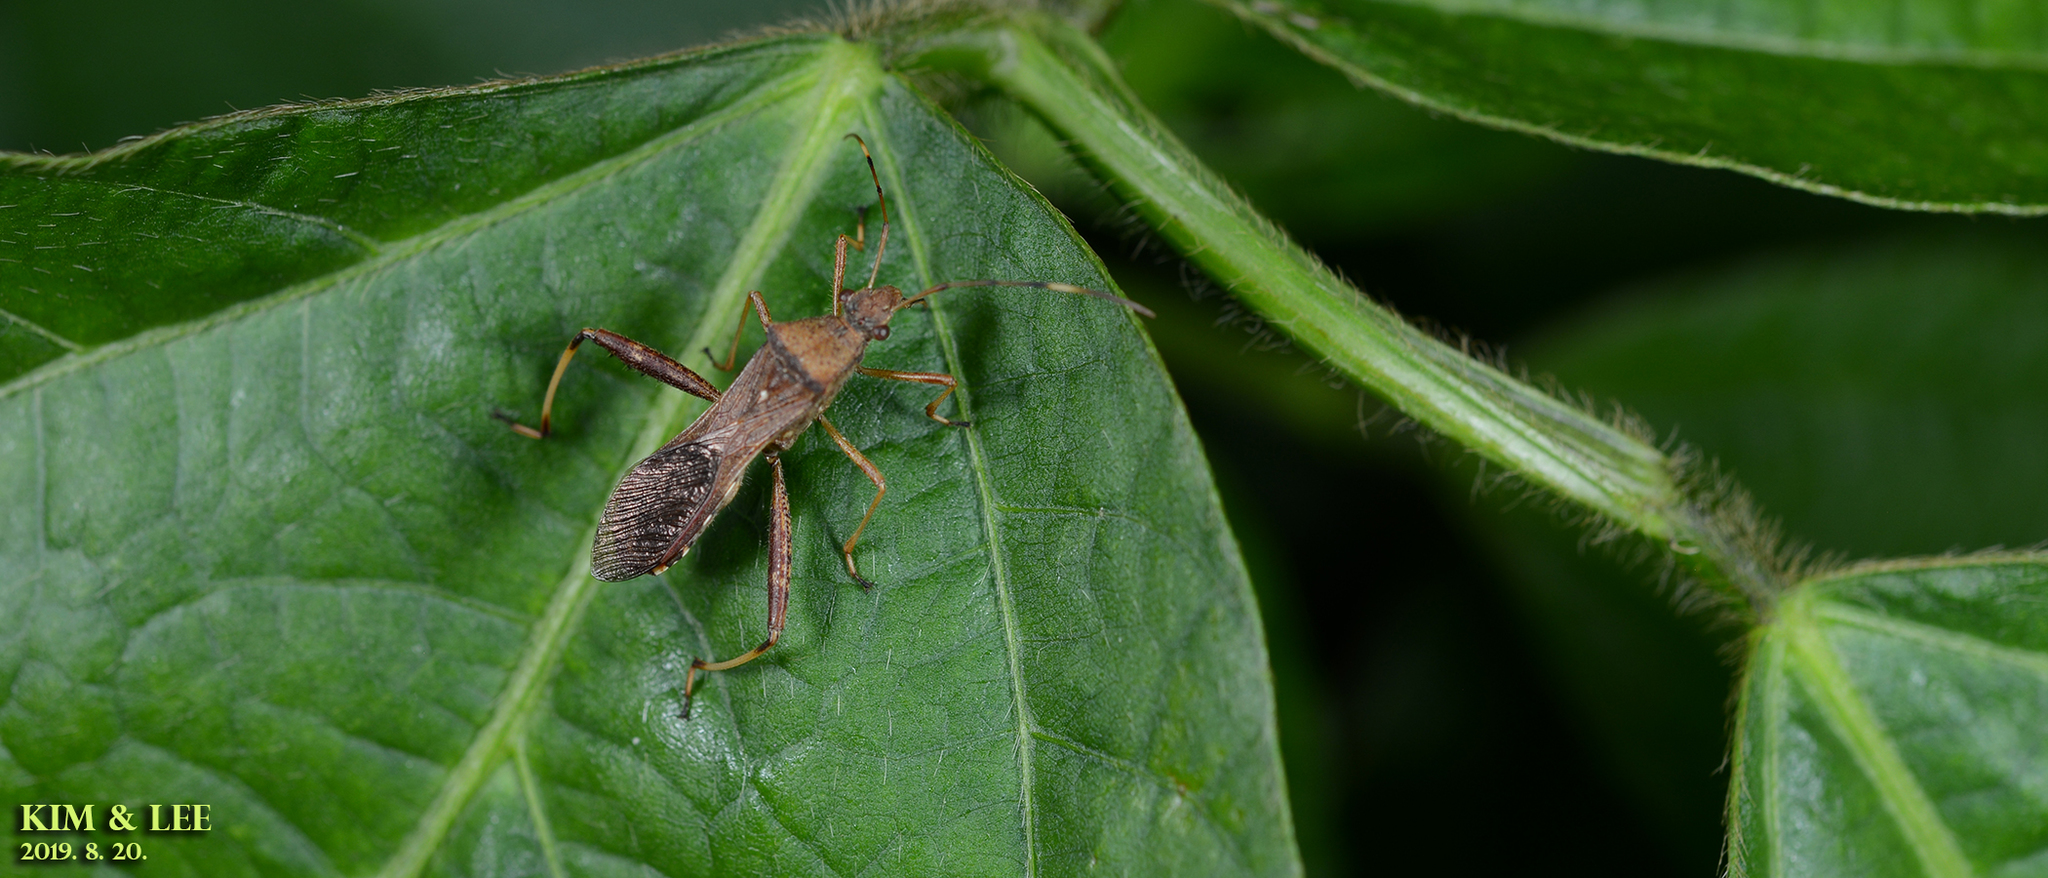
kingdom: Animalia
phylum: Arthropoda
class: Insecta
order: Hemiptera
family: Alydidae
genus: Riptortus
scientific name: Riptortus pedestris
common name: Bean bug
